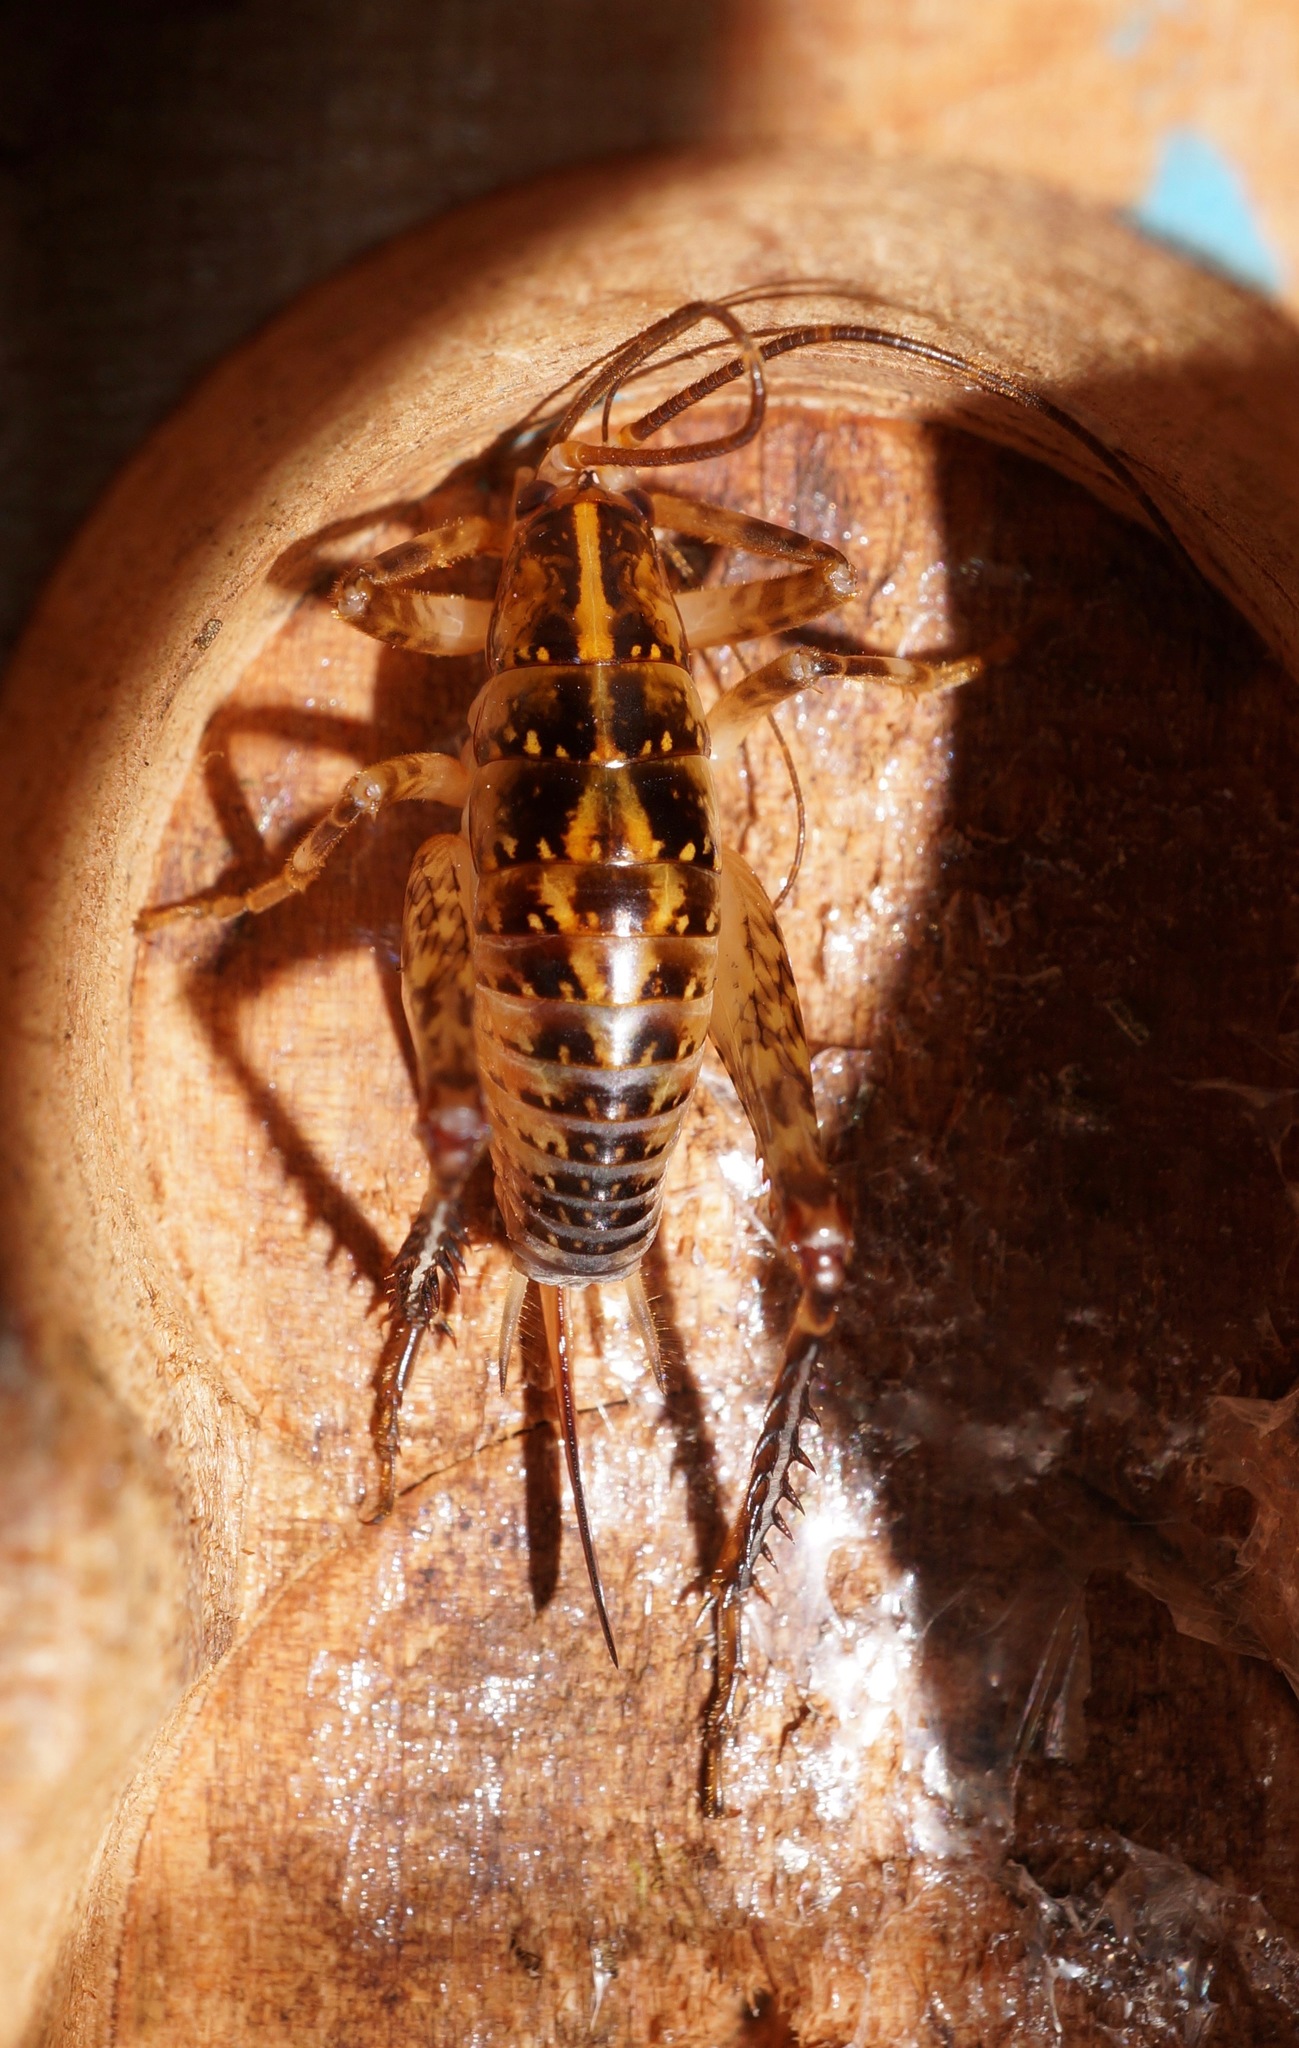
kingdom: Animalia
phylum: Arthropoda
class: Insecta
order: Orthoptera
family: Rhaphidophoridae
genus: Talitropsis
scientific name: Talitropsis sedilloti
